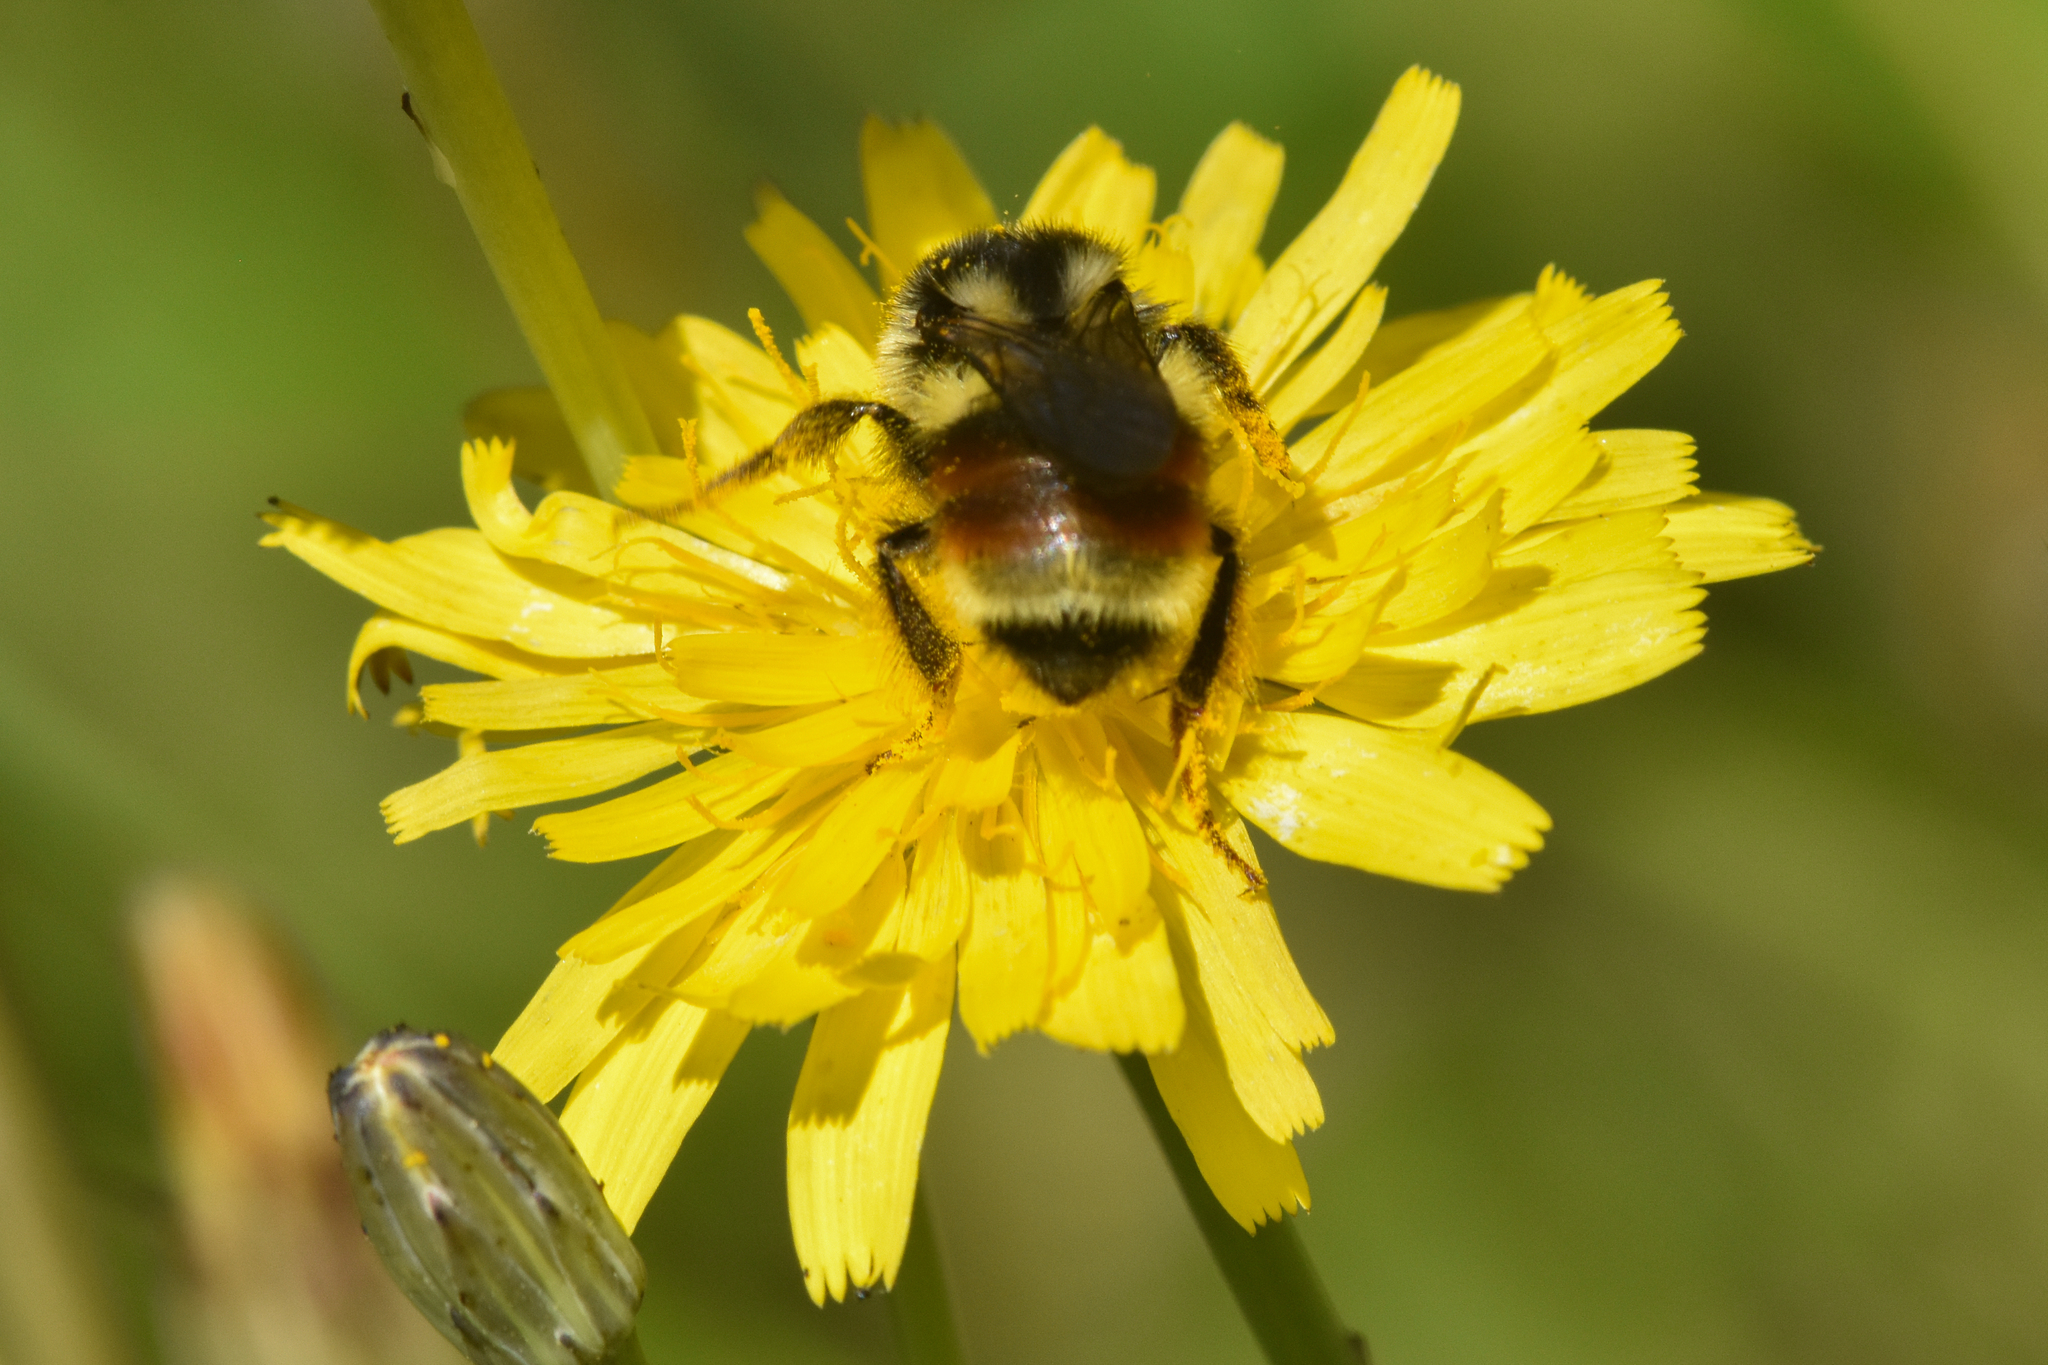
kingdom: Animalia
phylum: Arthropoda
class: Insecta
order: Hymenoptera
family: Apidae
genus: Bombus
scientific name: Bombus vancouverensis
